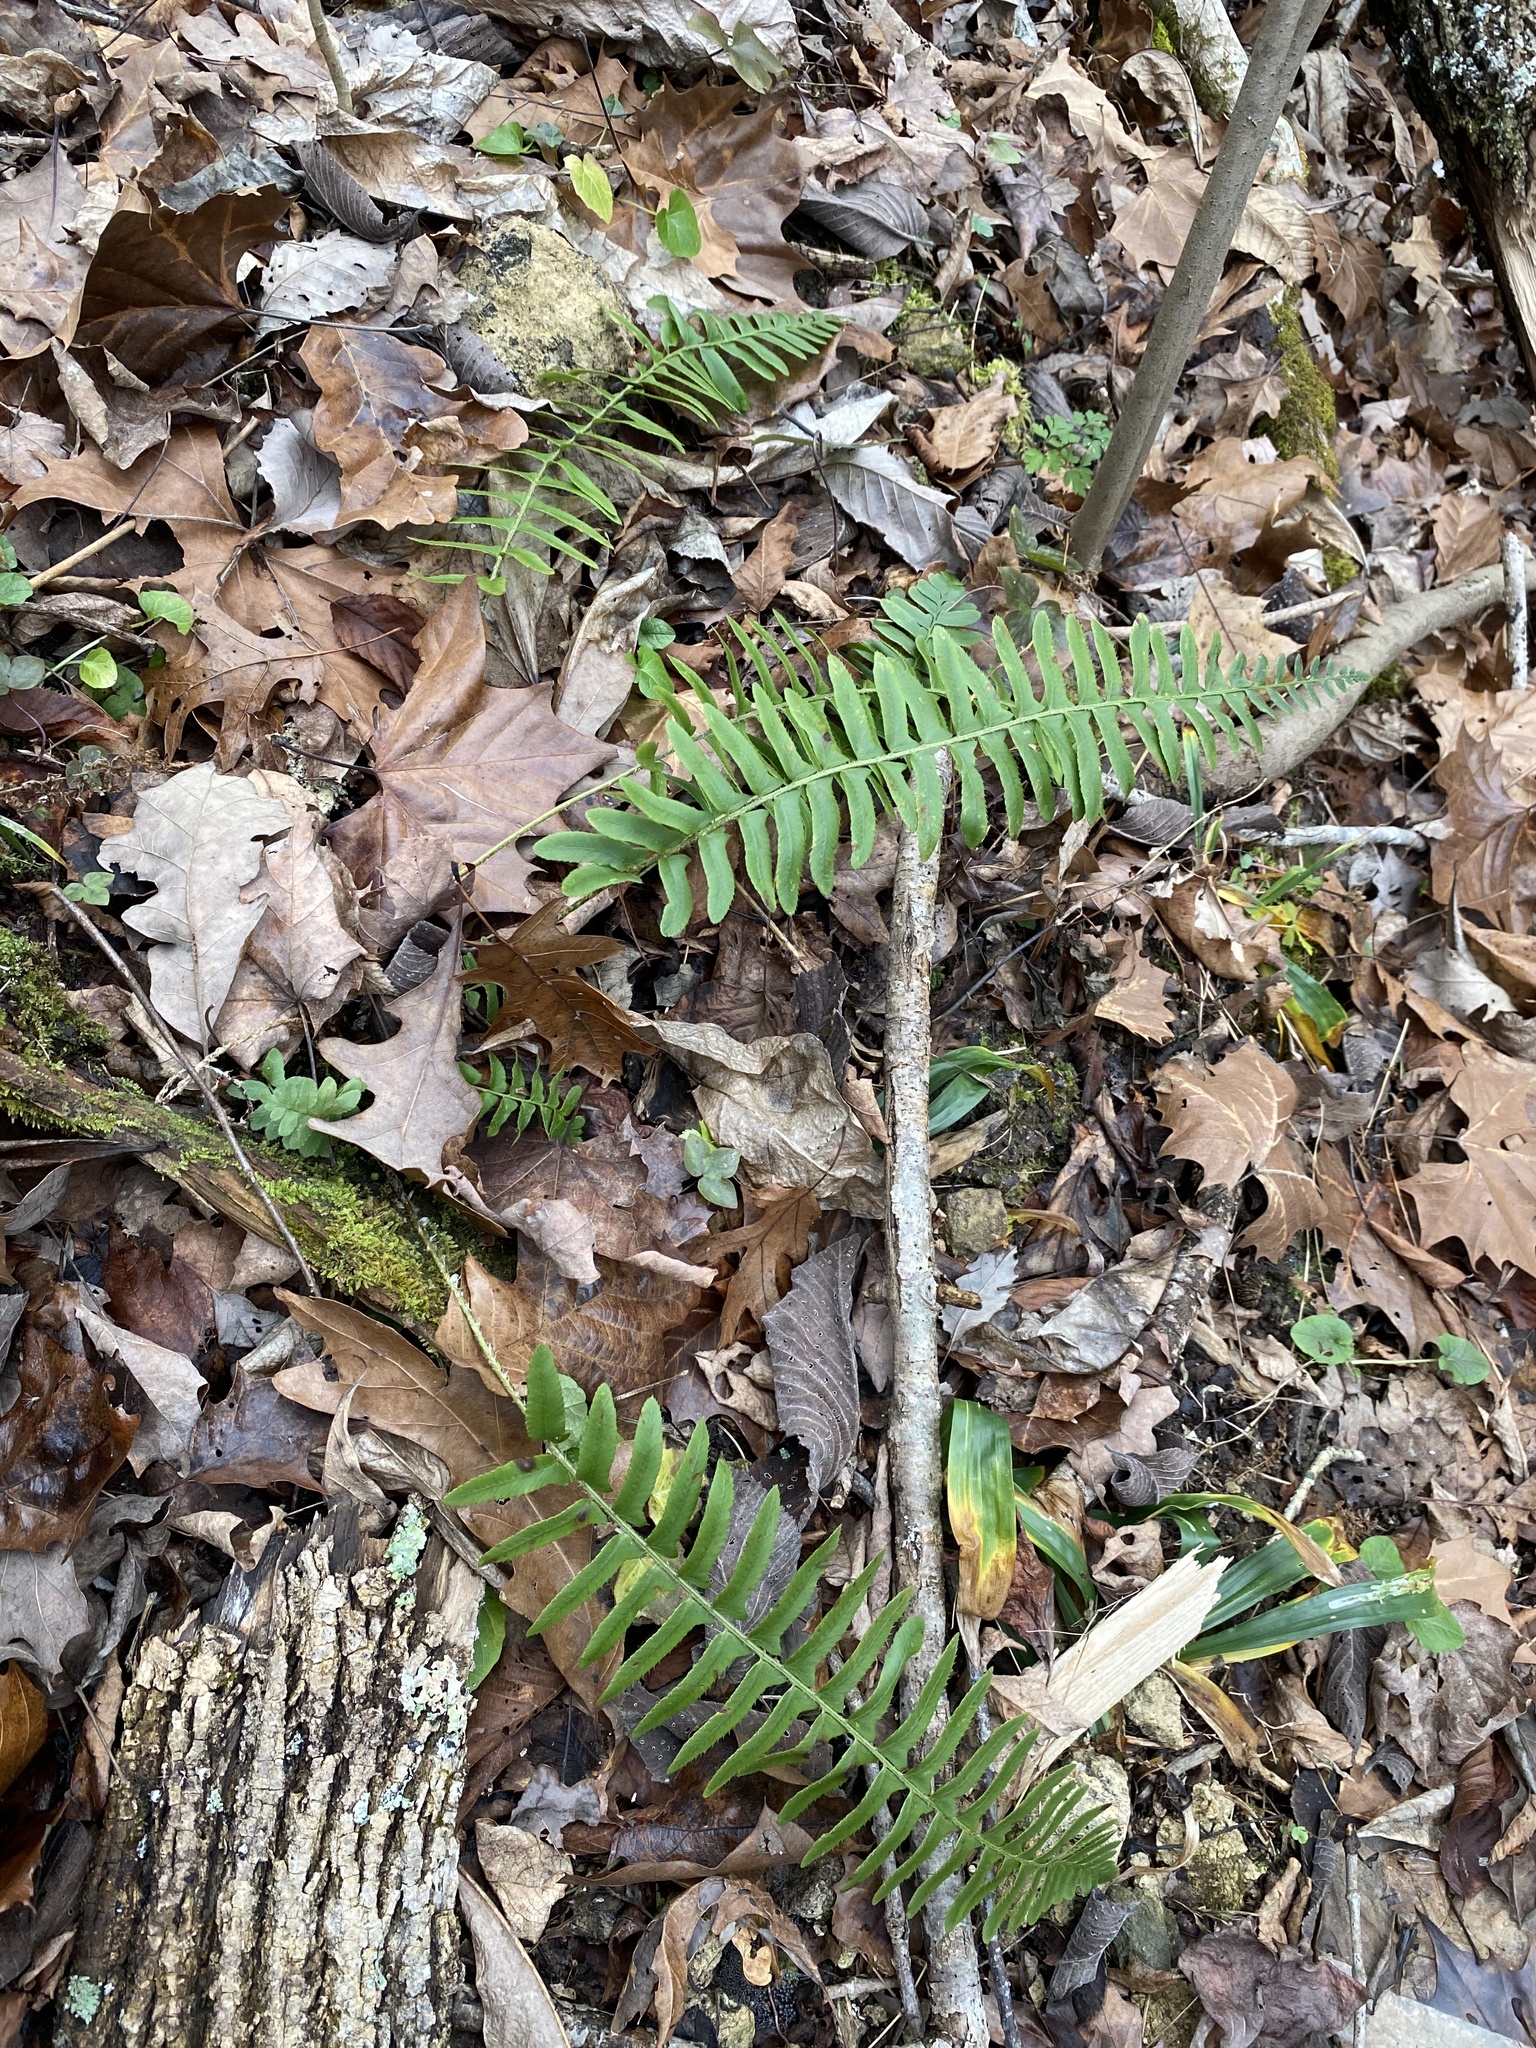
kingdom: Plantae
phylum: Tracheophyta
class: Polypodiopsida
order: Polypodiales
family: Dryopteridaceae
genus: Polystichum
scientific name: Polystichum acrostichoides
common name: Christmas fern
